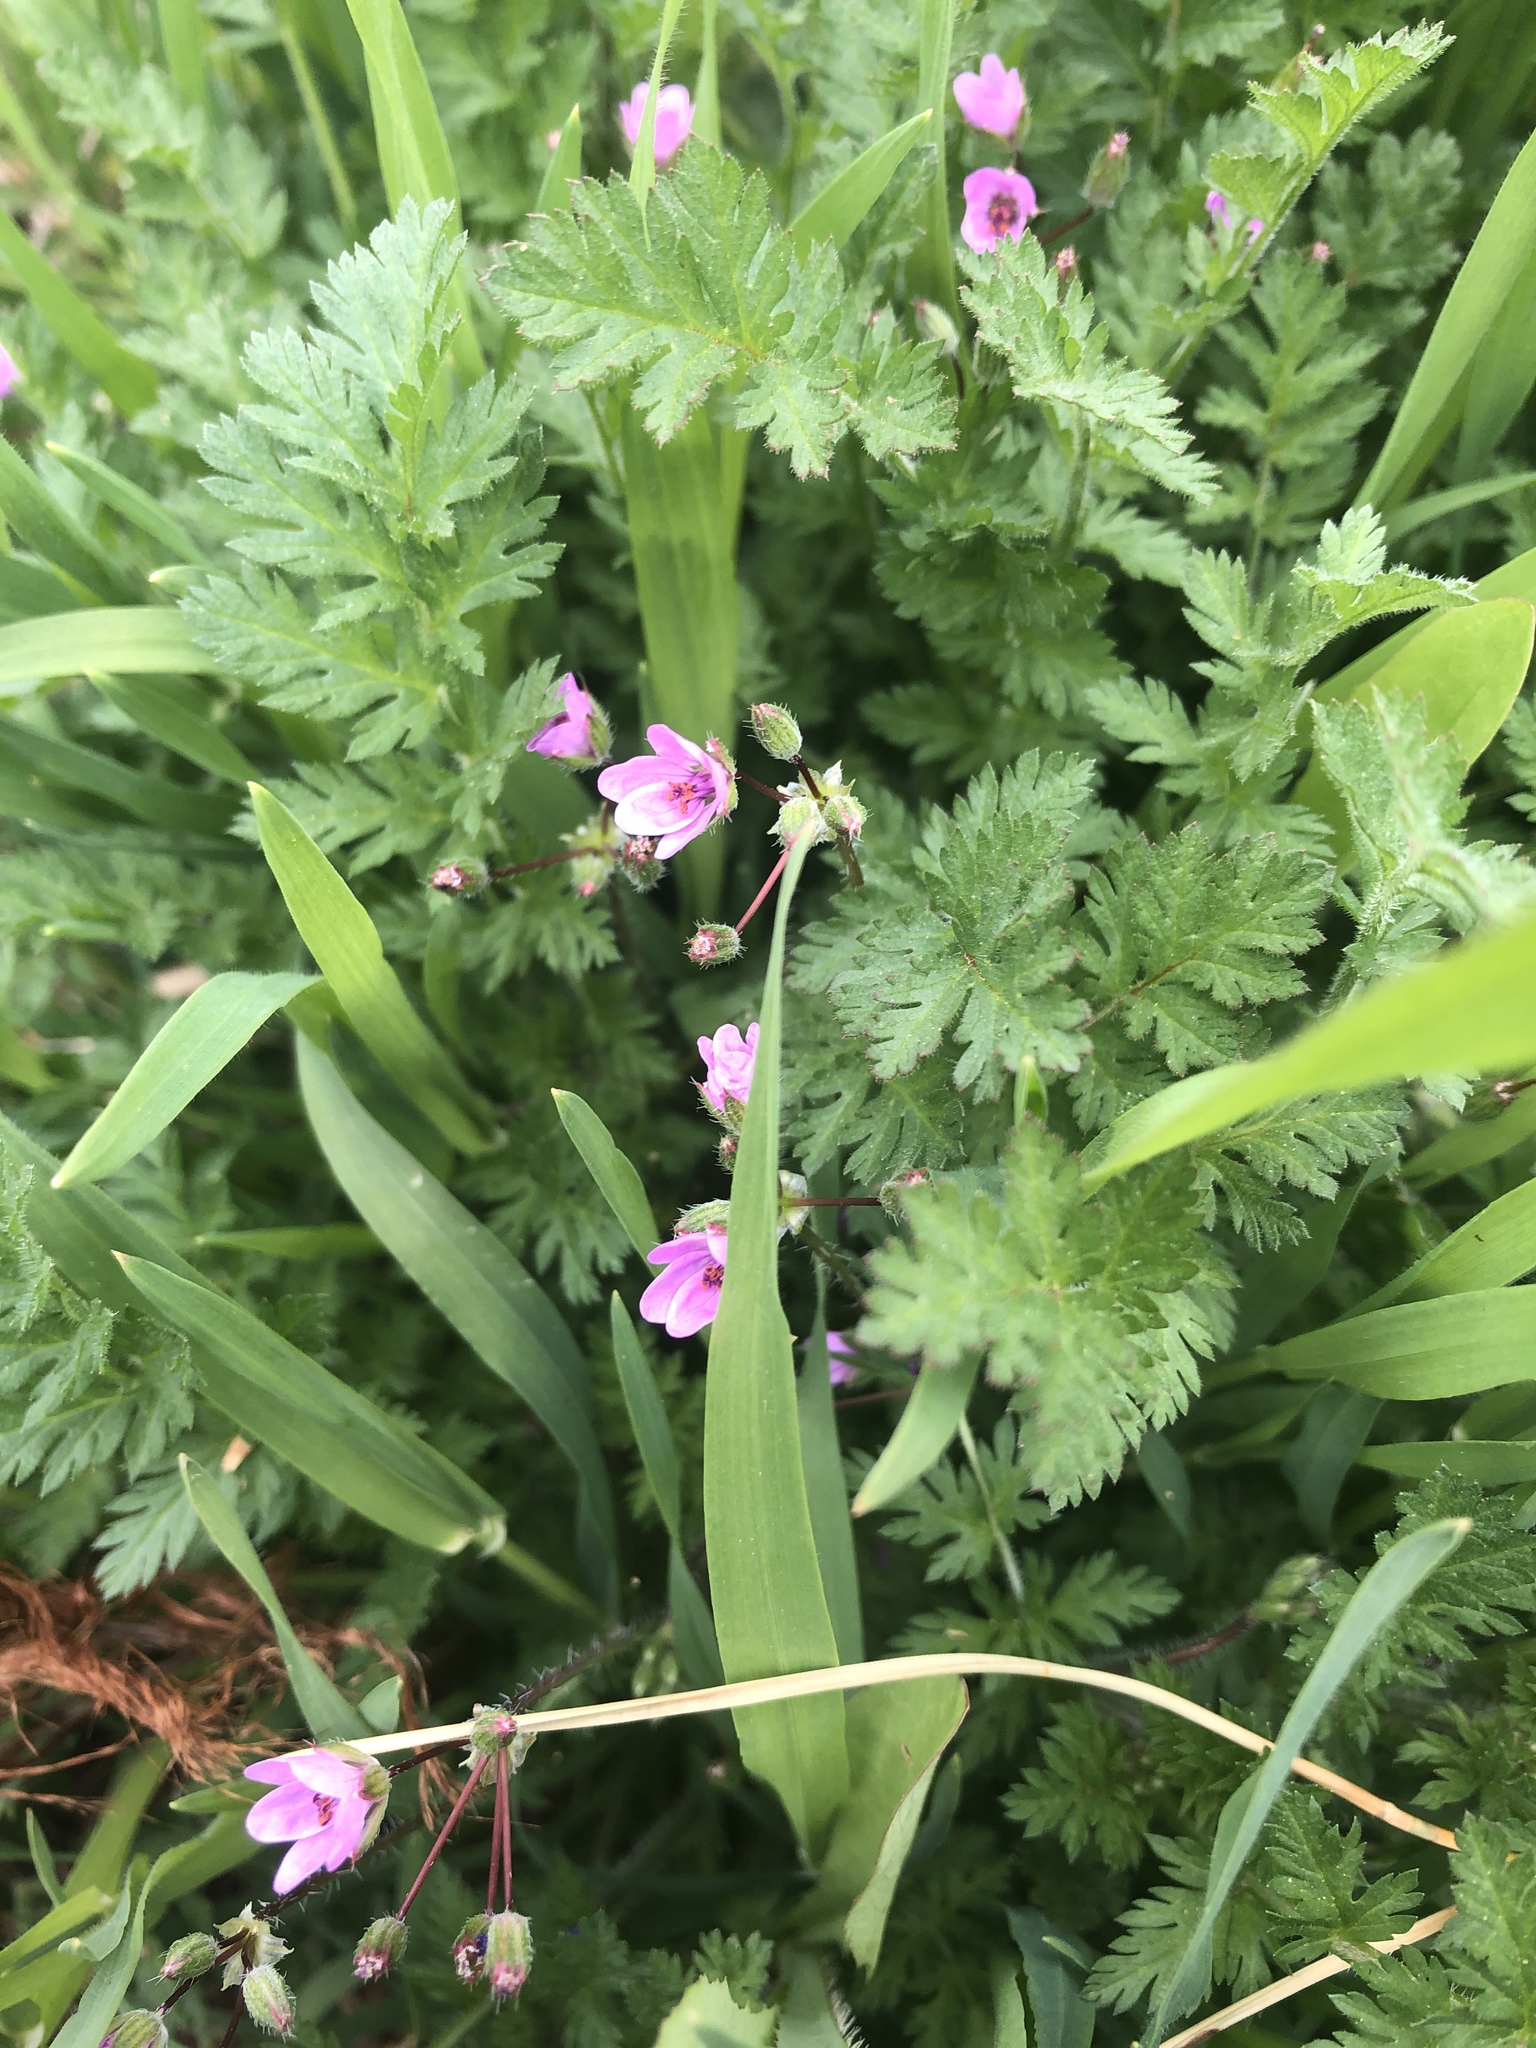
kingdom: Plantae
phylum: Tracheophyta
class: Magnoliopsida
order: Geraniales
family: Geraniaceae
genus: Erodium
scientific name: Erodium cicutarium
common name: Common stork's-bill
